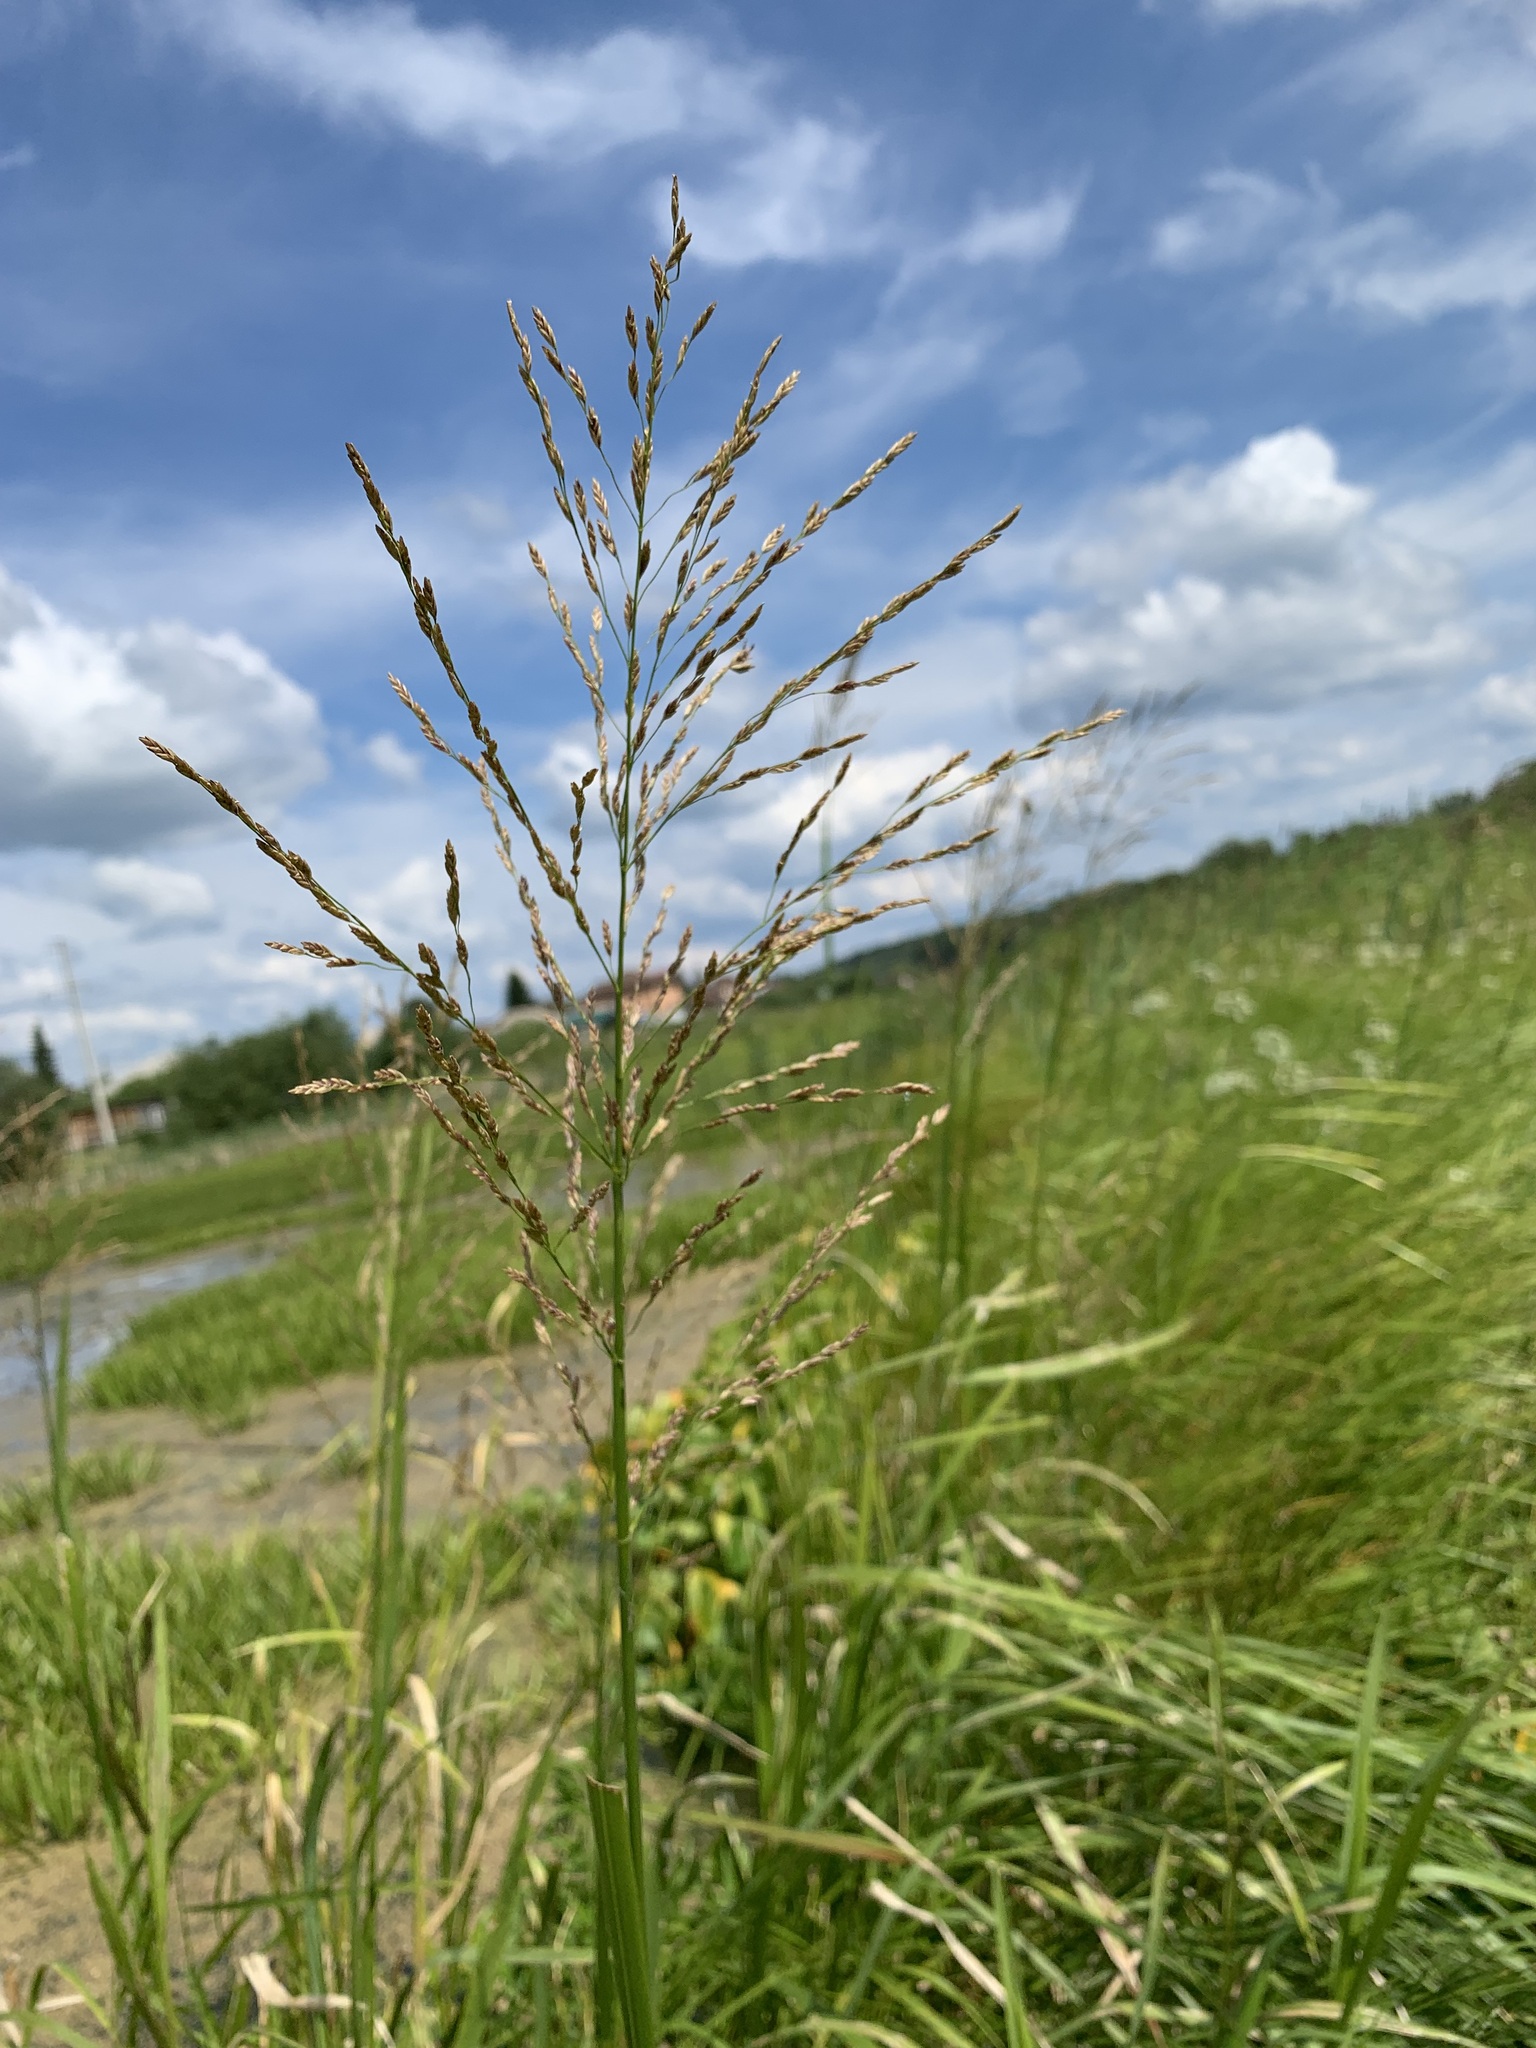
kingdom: Plantae
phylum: Tracheophyta
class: Liliopsida
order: Poales
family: Poaceae
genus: Glyceria
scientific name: Glyceria maxima
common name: Reed mannagrass
